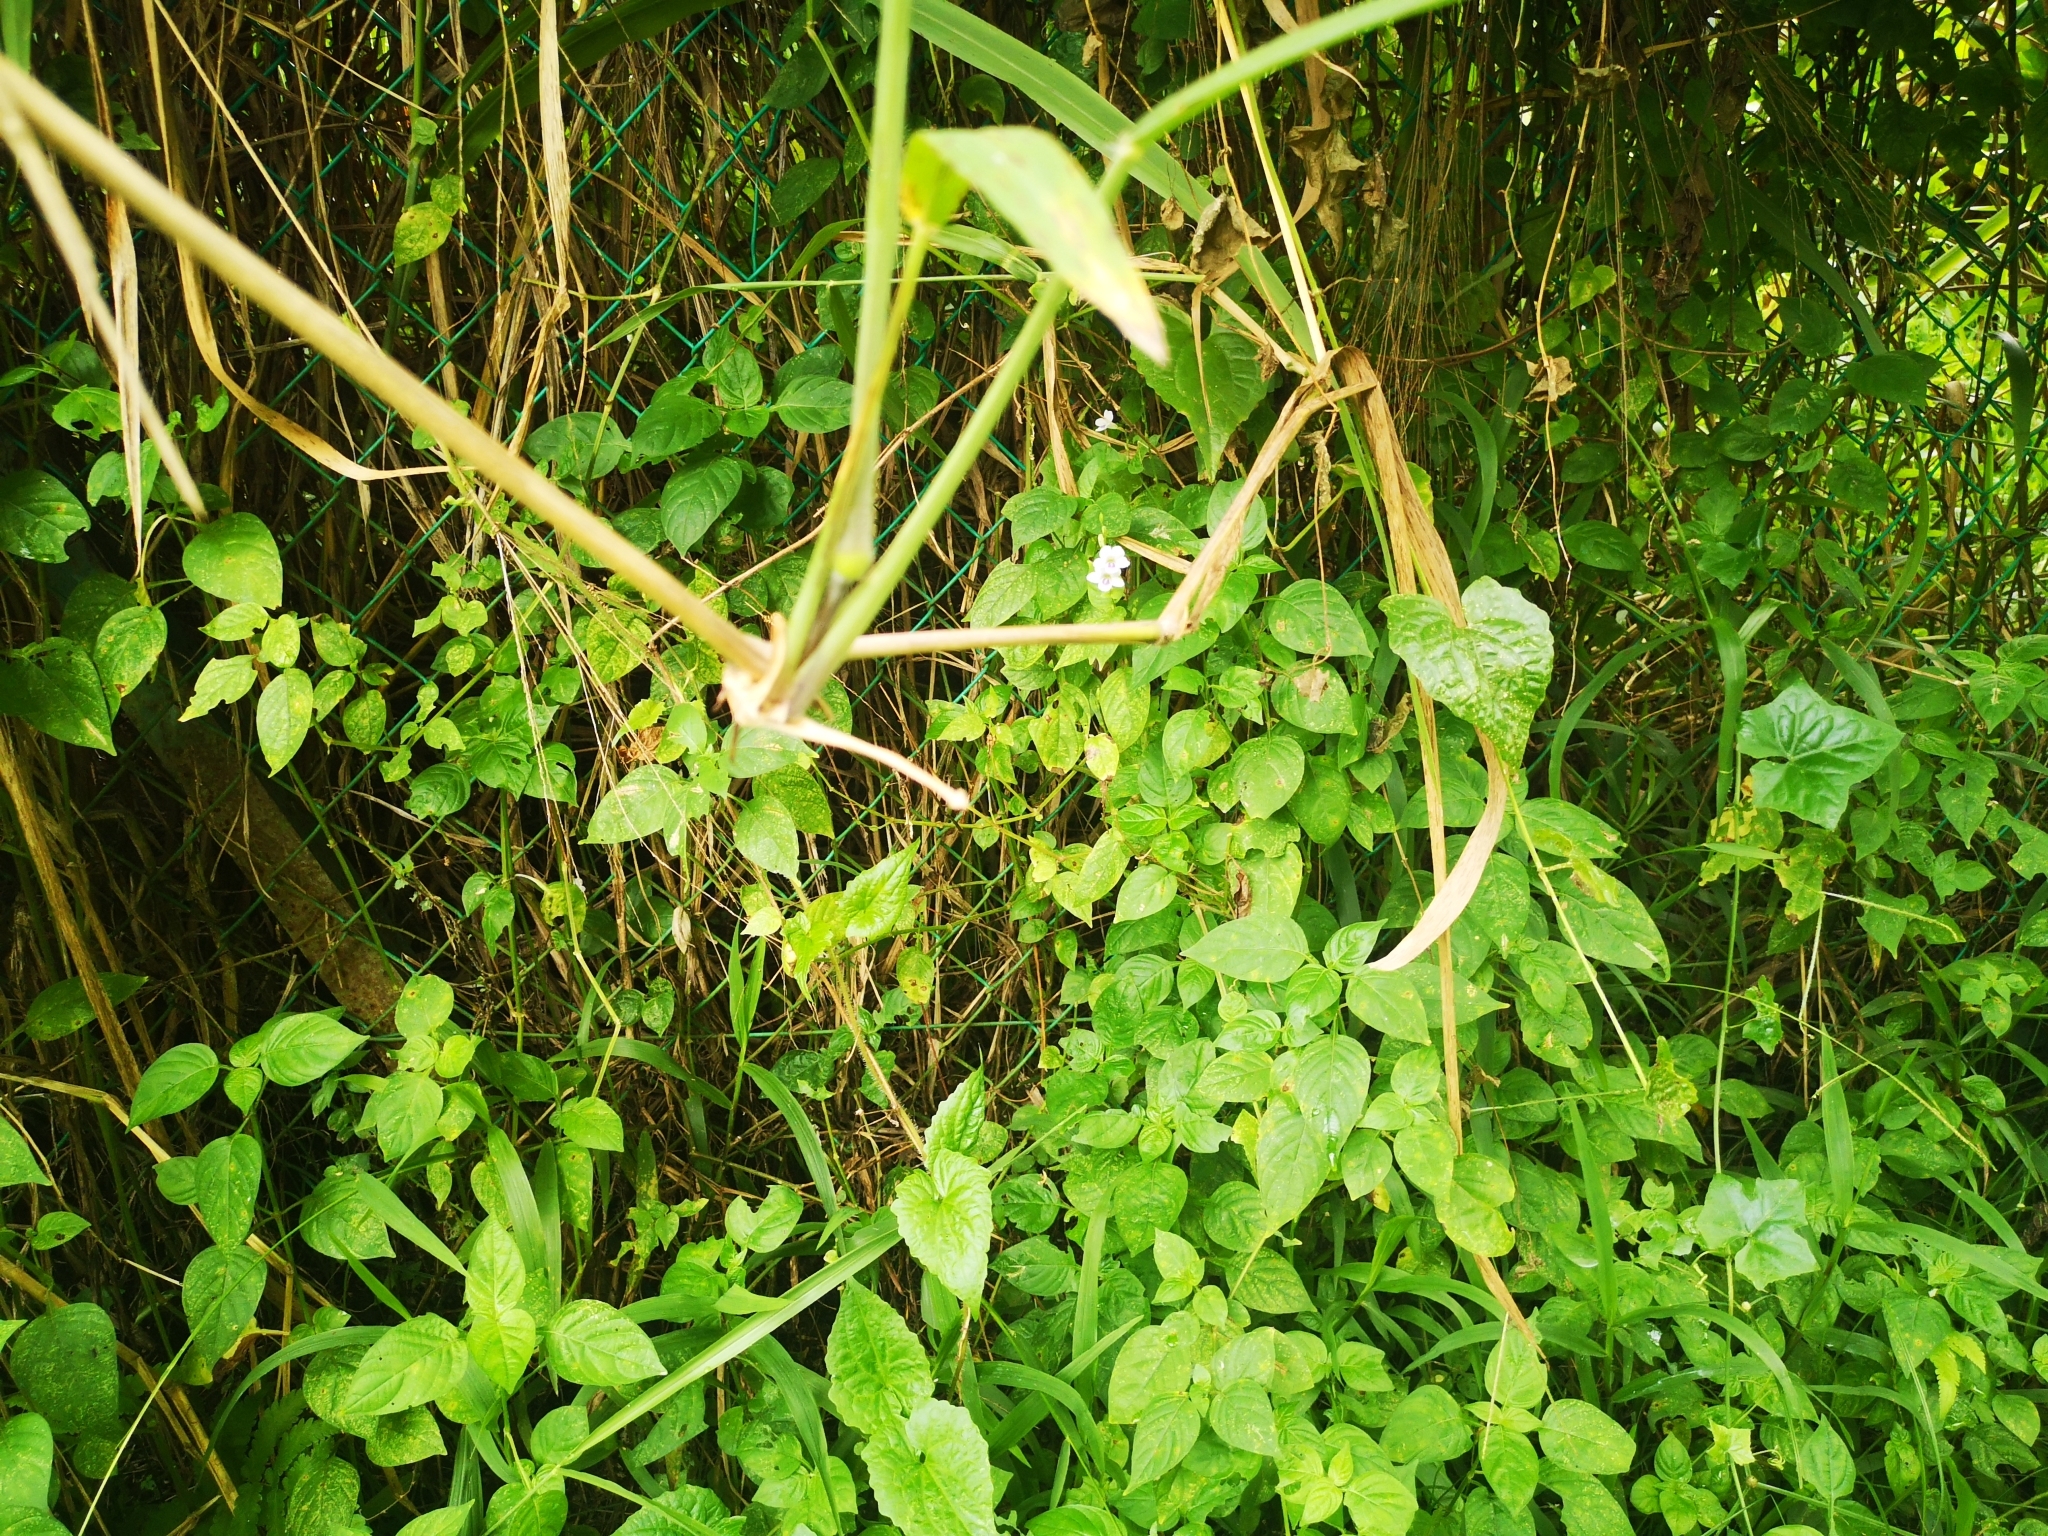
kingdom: Plantae
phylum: Tracheophyta
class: Magnoliopsida
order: Lamiales
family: Acanthaceae
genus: Asystasia
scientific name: Asystasia intrusa
